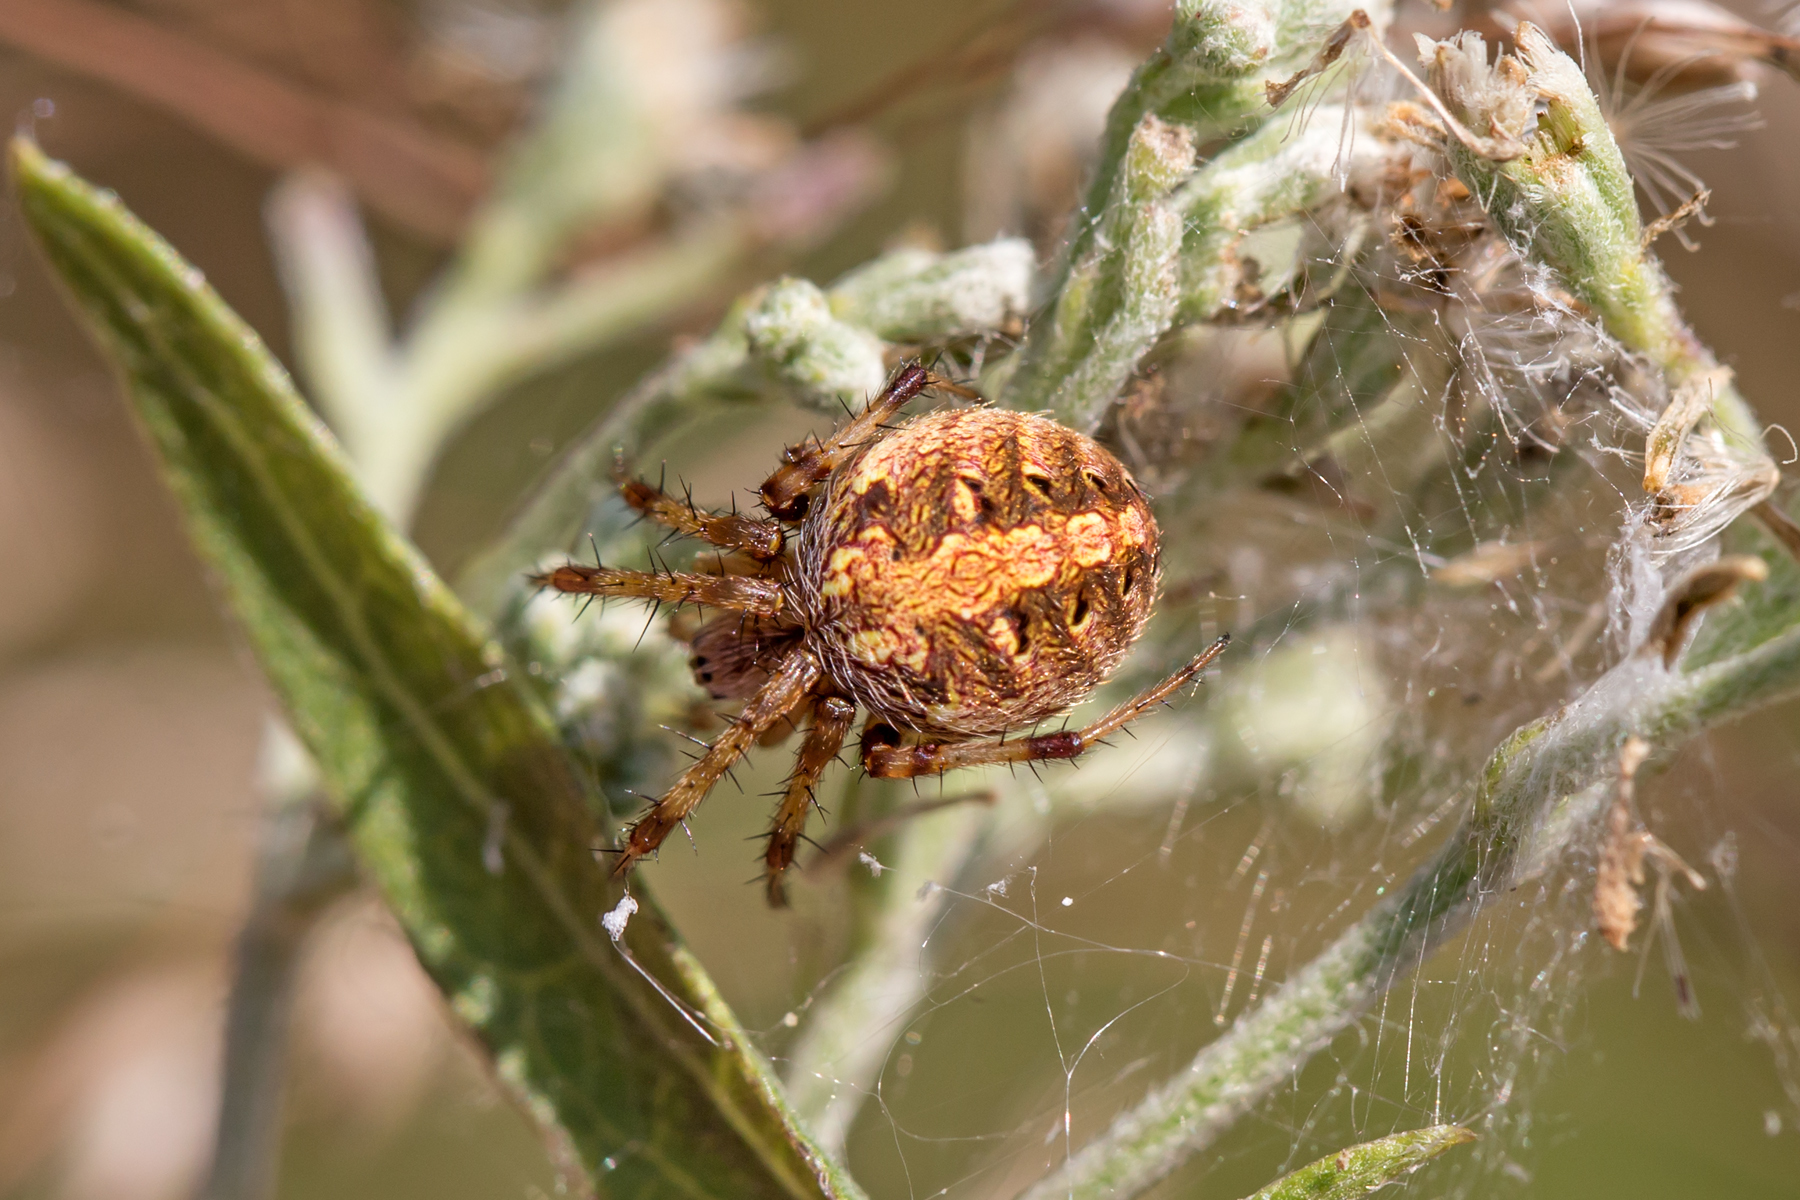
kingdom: Animalia
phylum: Arthropoda
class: Arachnida
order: Araneae
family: Araneidae
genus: Neoscona
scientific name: Neoscona arabesca
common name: Orb weavers
